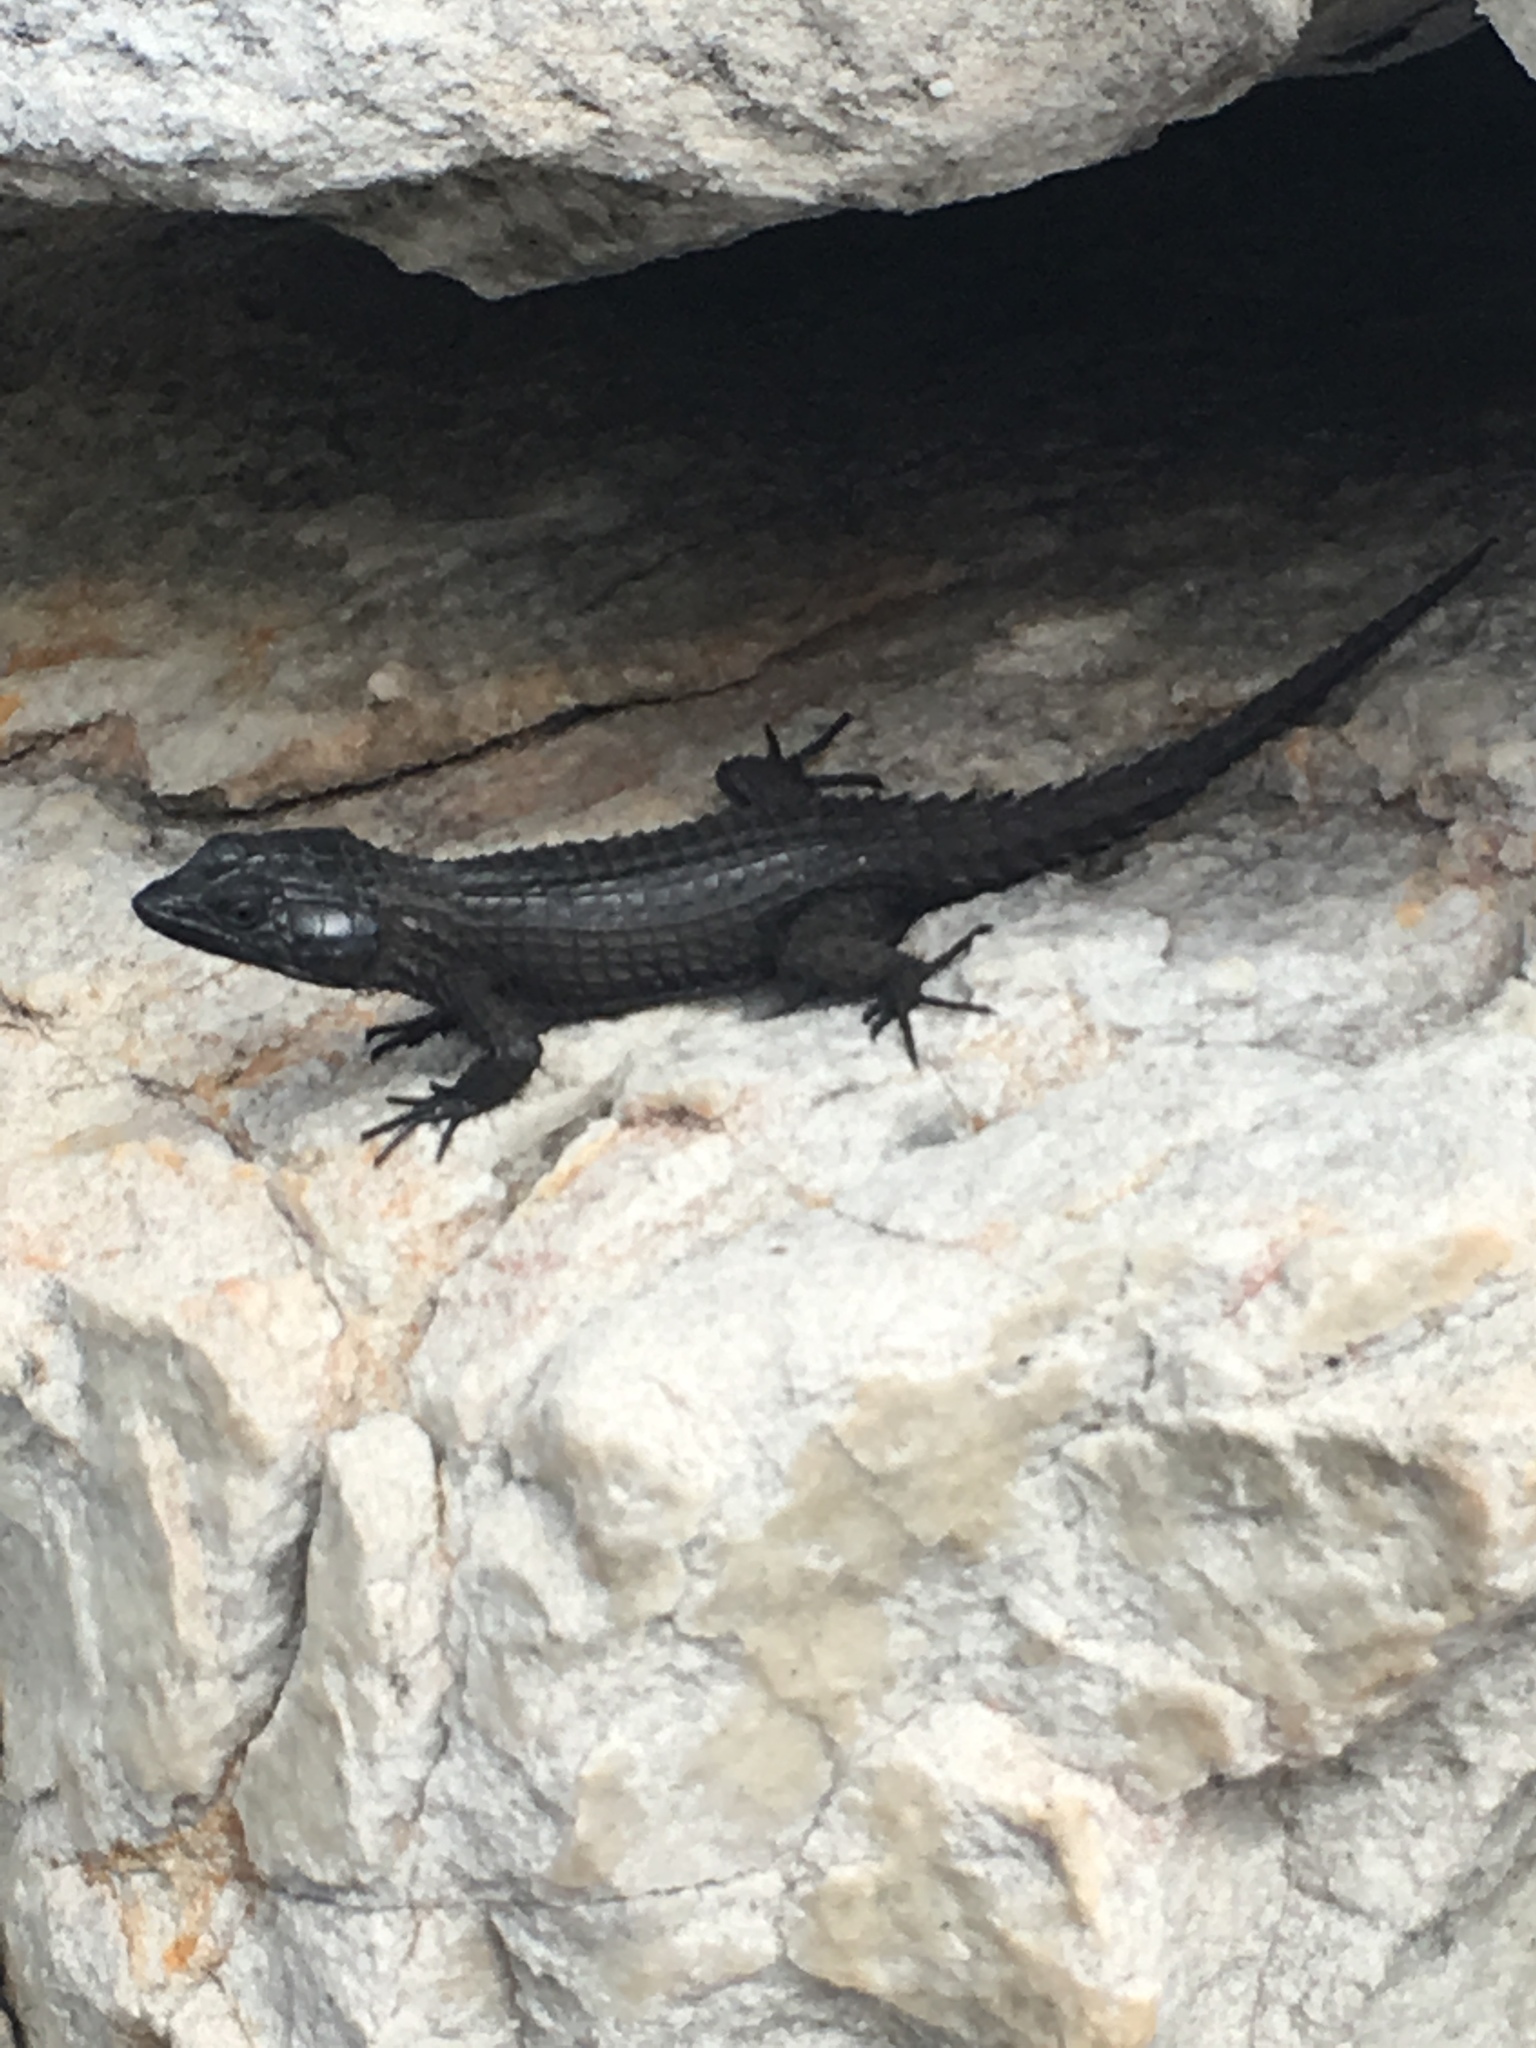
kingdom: Animalia
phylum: Chordata
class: Squamata
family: Cordylidae
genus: Cordylus
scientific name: Cordylus niger
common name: Black girdled lizard
